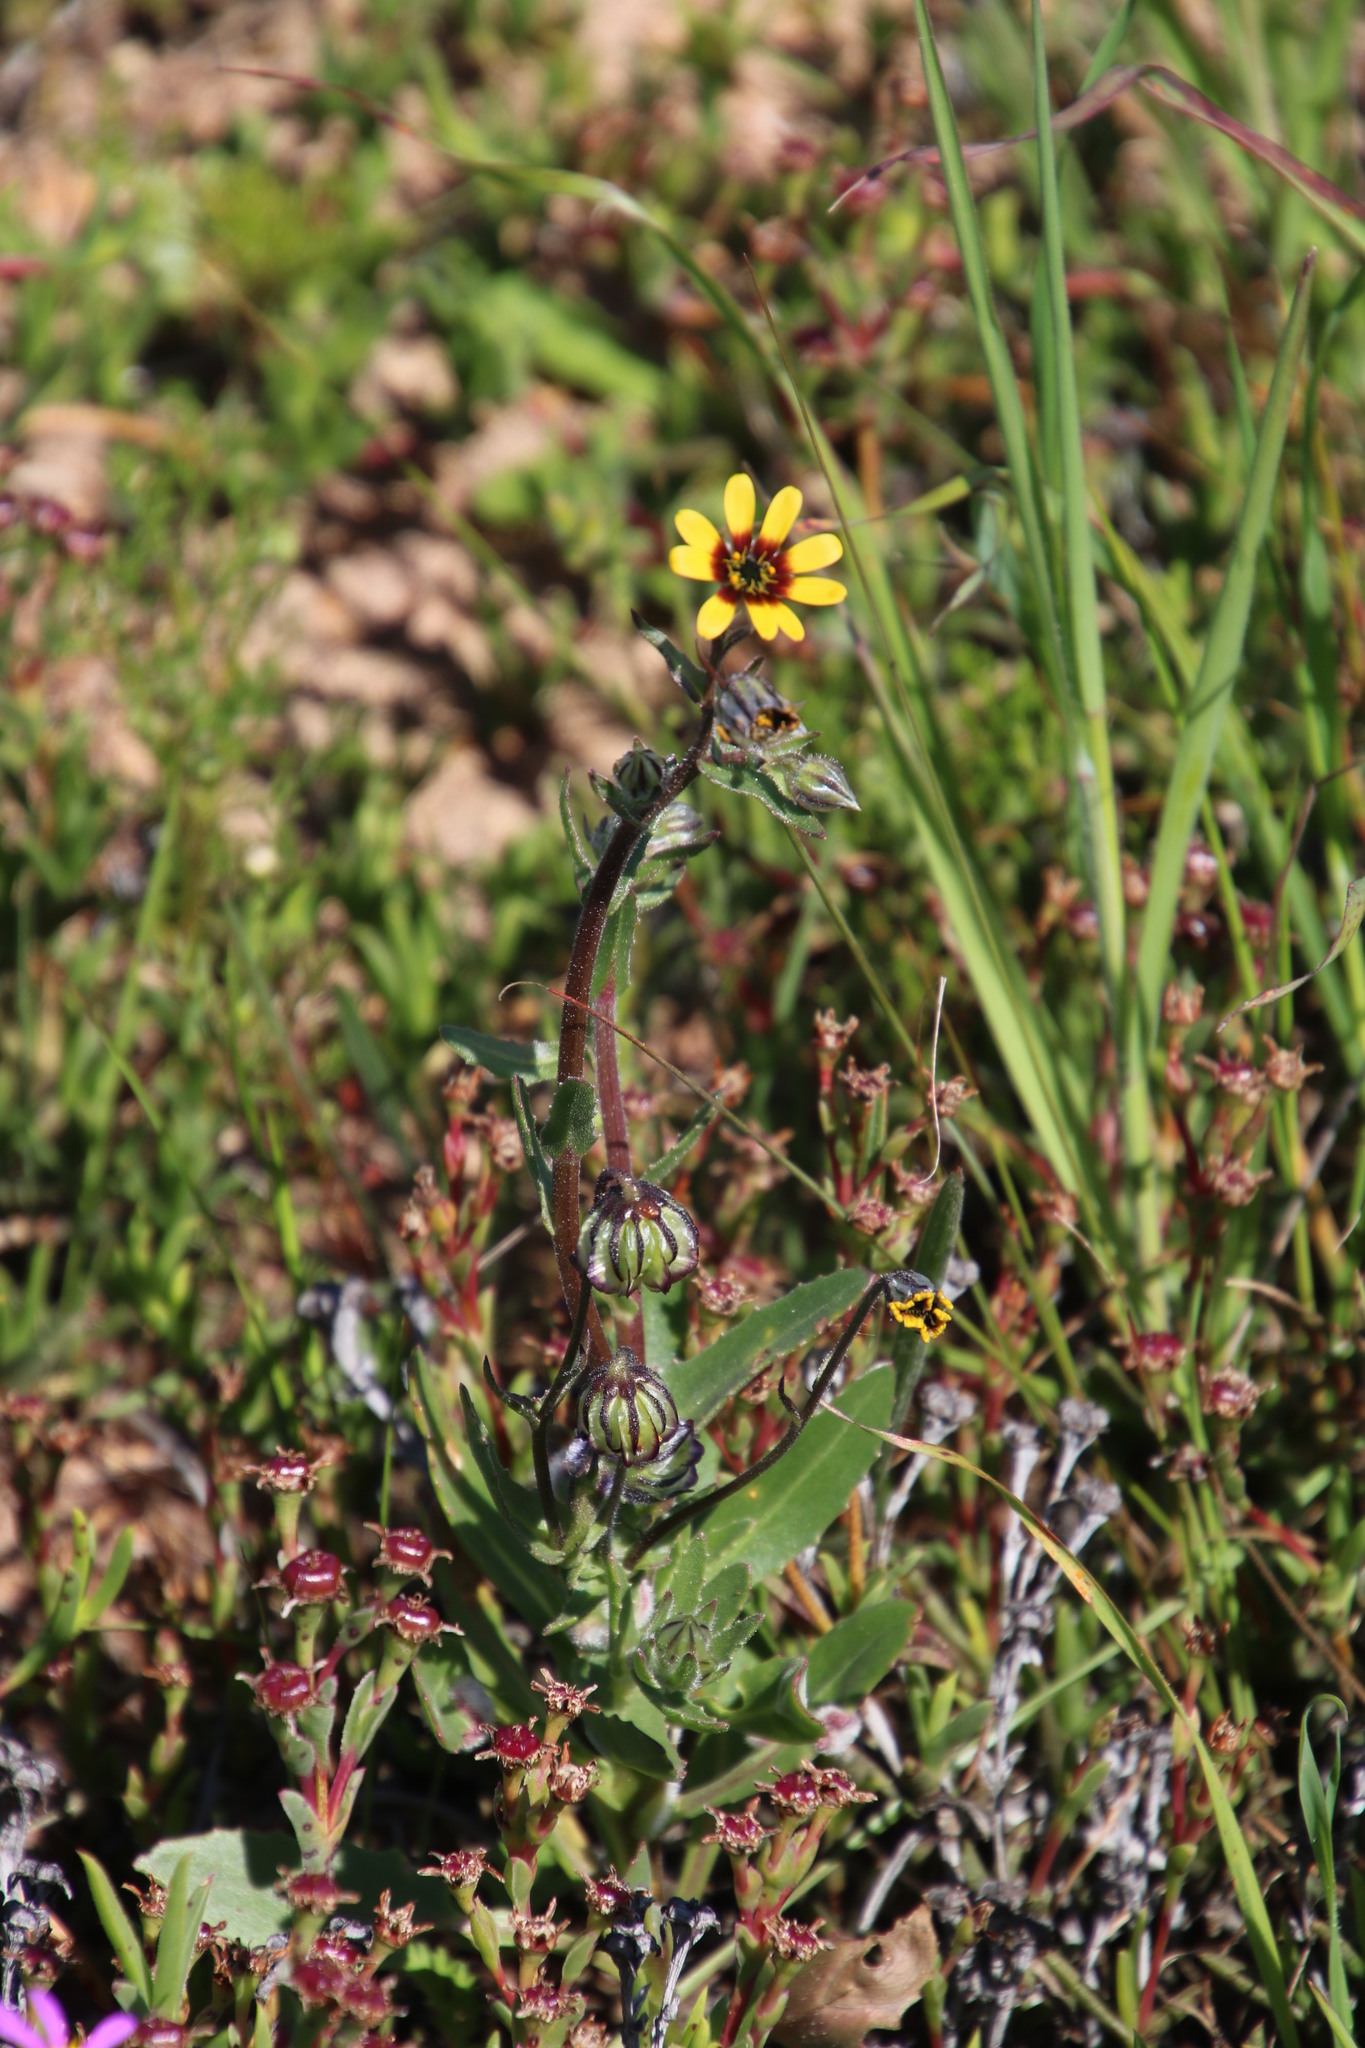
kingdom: Plantae
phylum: Tracheophyta
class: Magnoliopsida
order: Asterales
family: Asteraceae
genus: Osteospermum
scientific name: Osteospermum monstrosum
